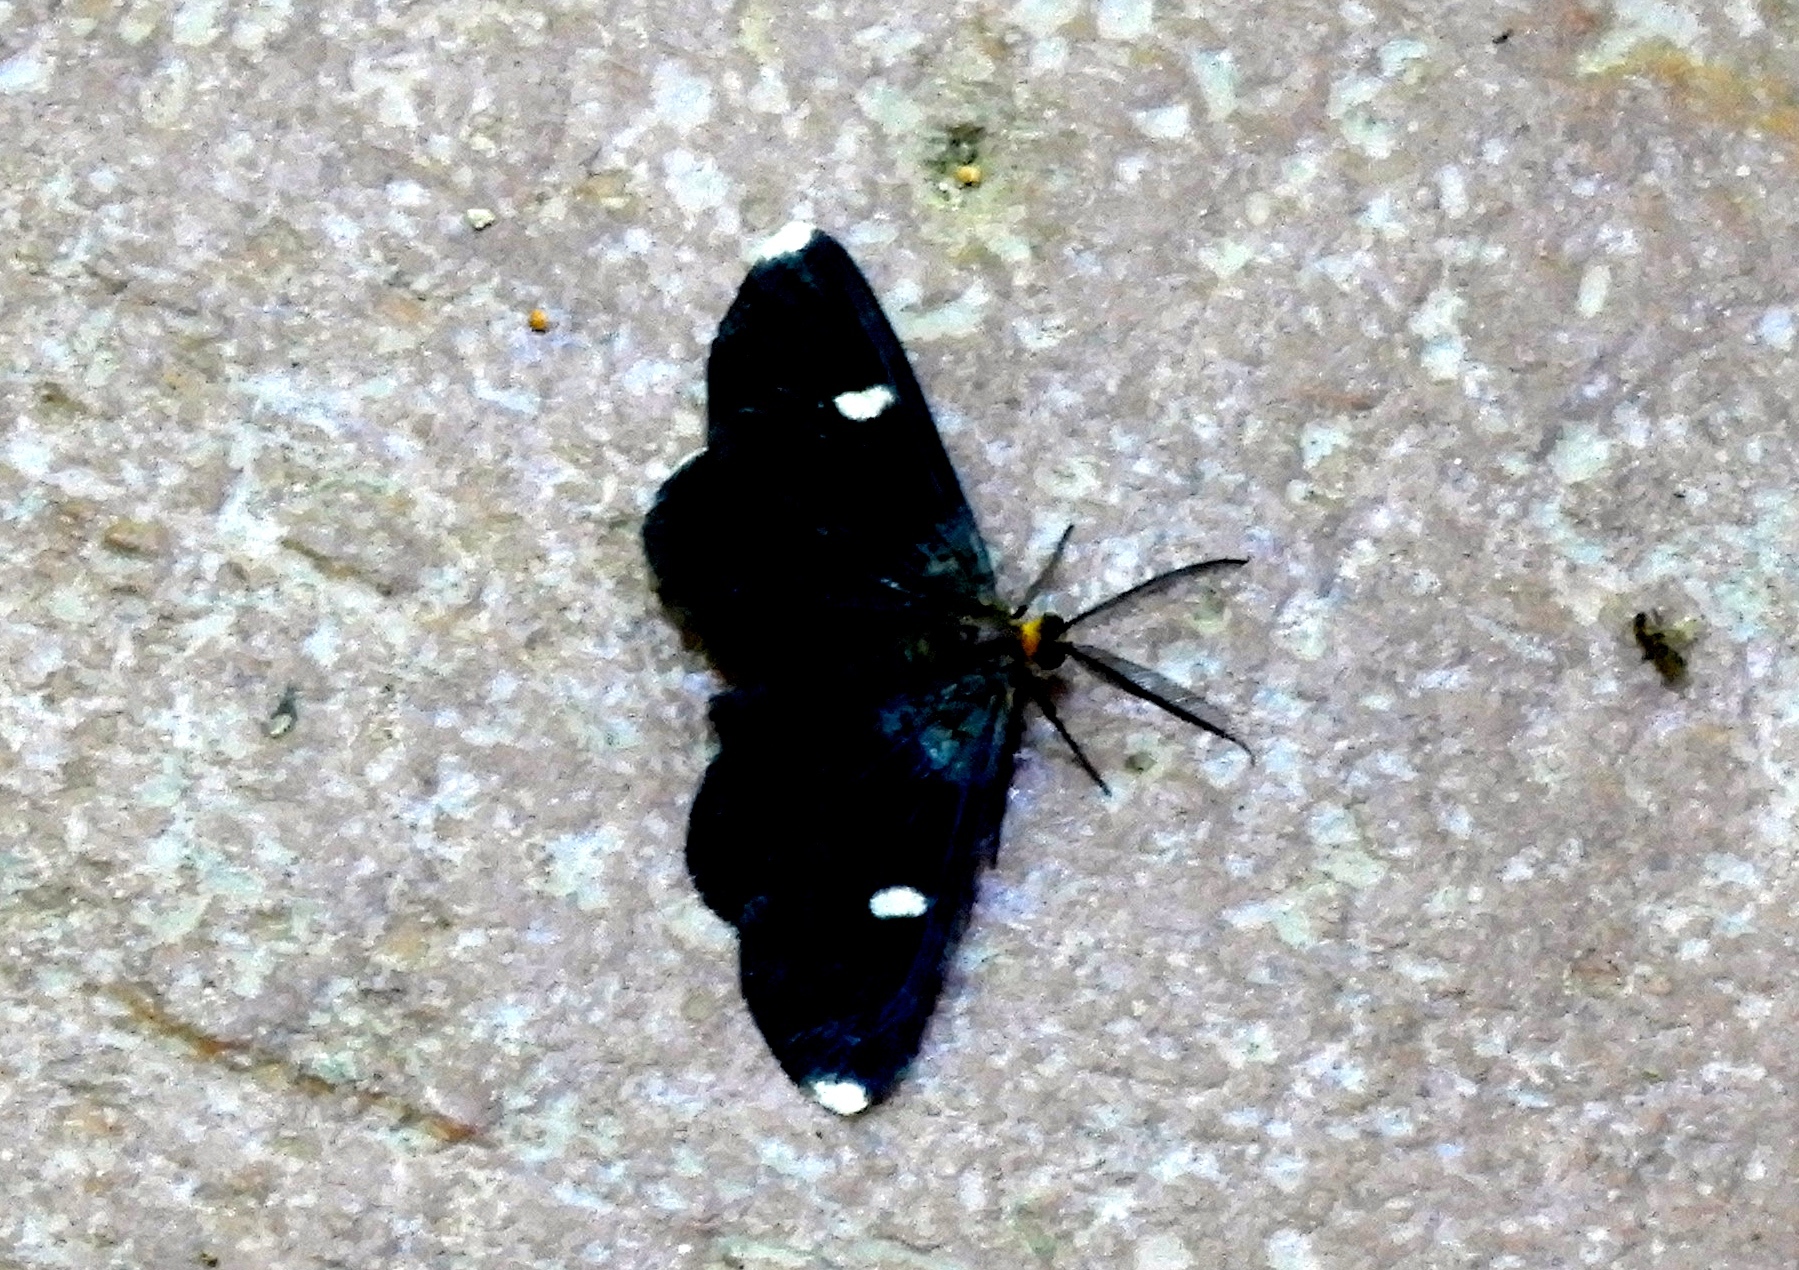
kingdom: Animalia
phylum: Arthropoda
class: Insecta
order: Lepidoptera
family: Geometridae
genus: Melanchroia
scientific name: Melanchroia vazquezae
